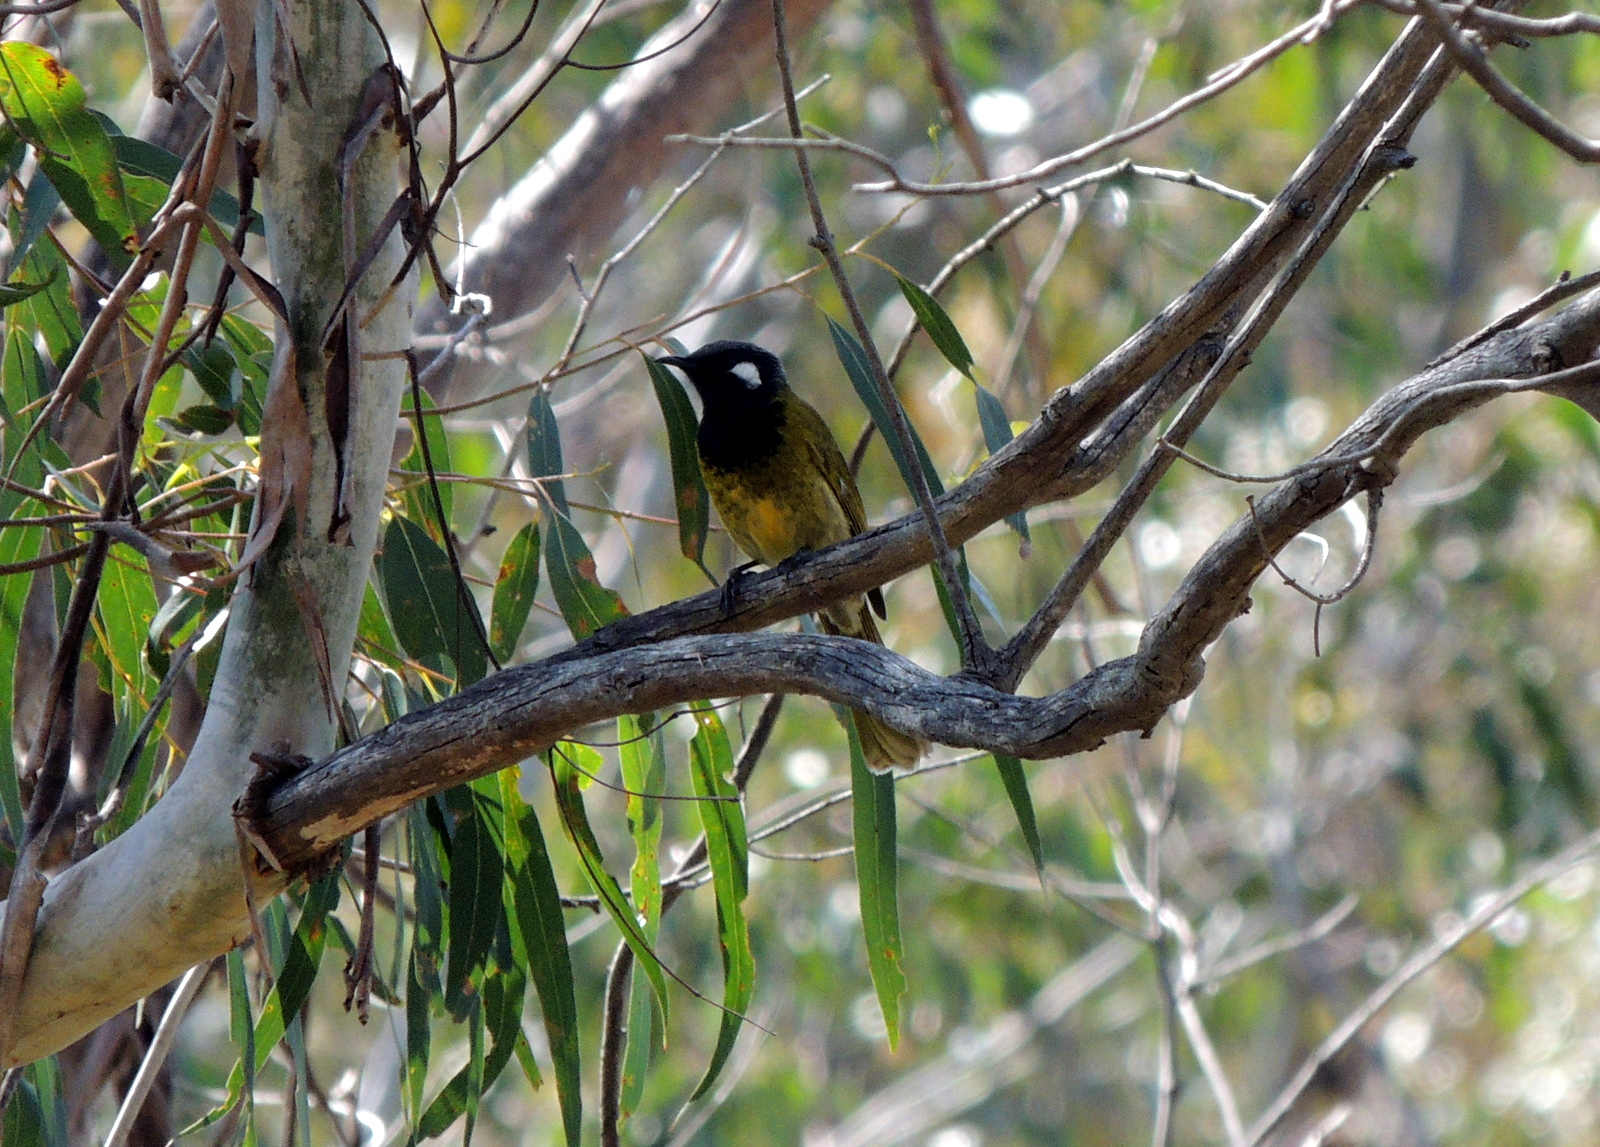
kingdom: Animalia
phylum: Chordata
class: Aves
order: Passeriformes
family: Meliphagidae
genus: Nesoptilotis
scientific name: Nesoptilotis leucotis
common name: White-eared honeyeater
